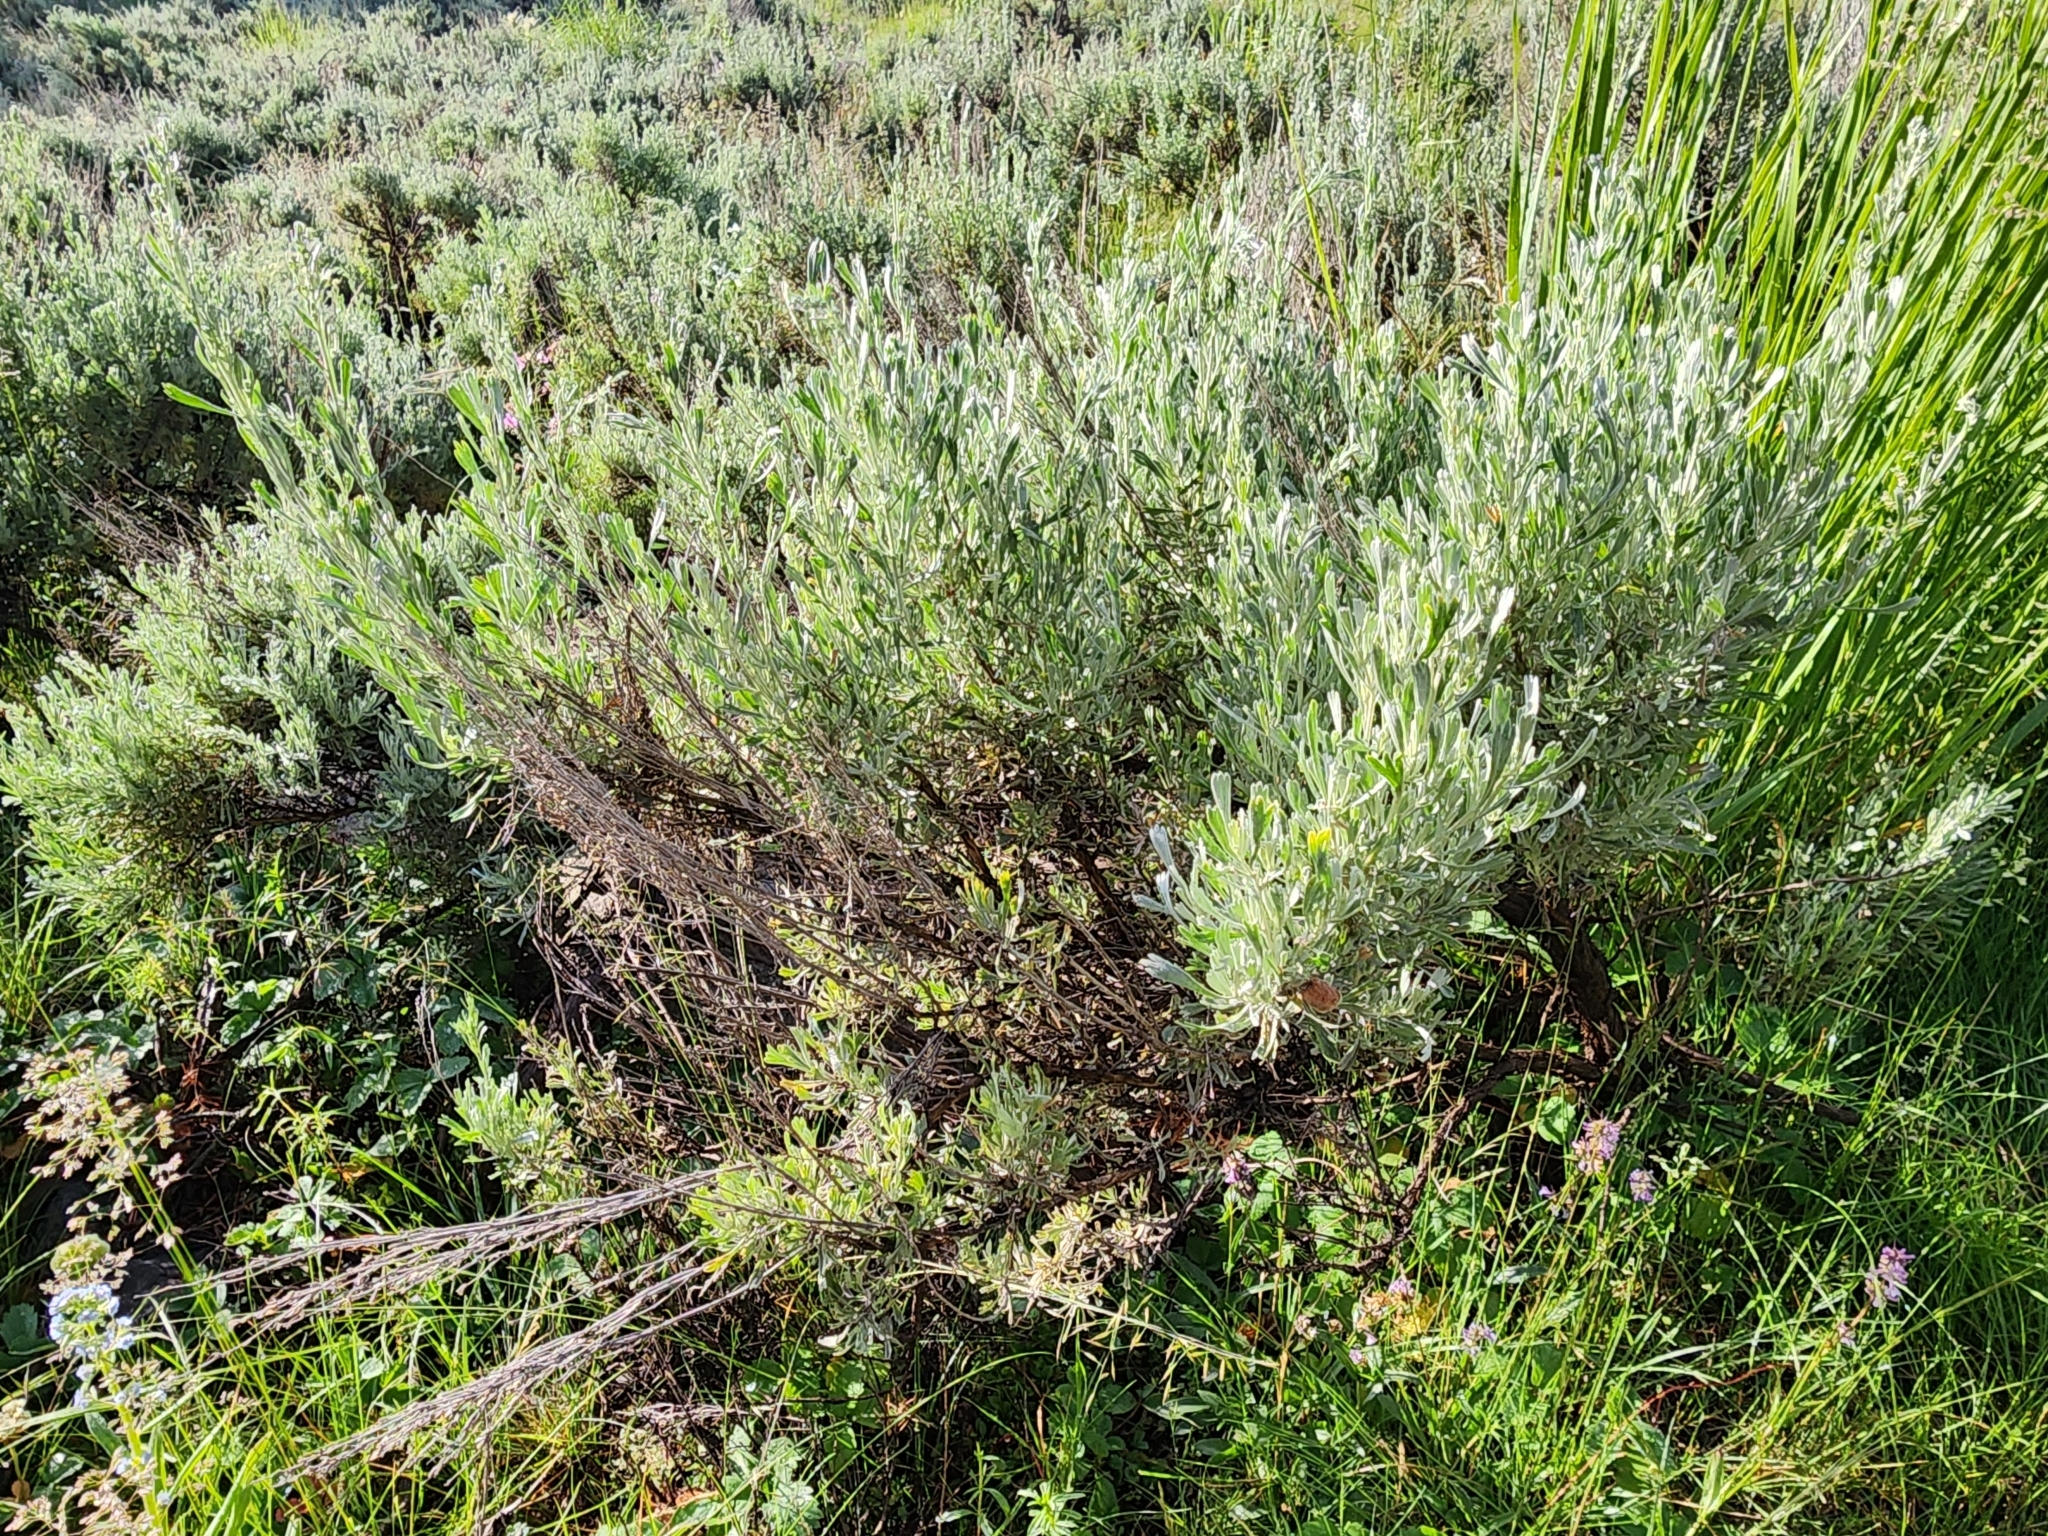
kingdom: Plantae
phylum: Tracheophyta
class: Magnoliopsida
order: Asterales
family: Asteraceae
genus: Artemisia
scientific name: Artemisia tridentata
